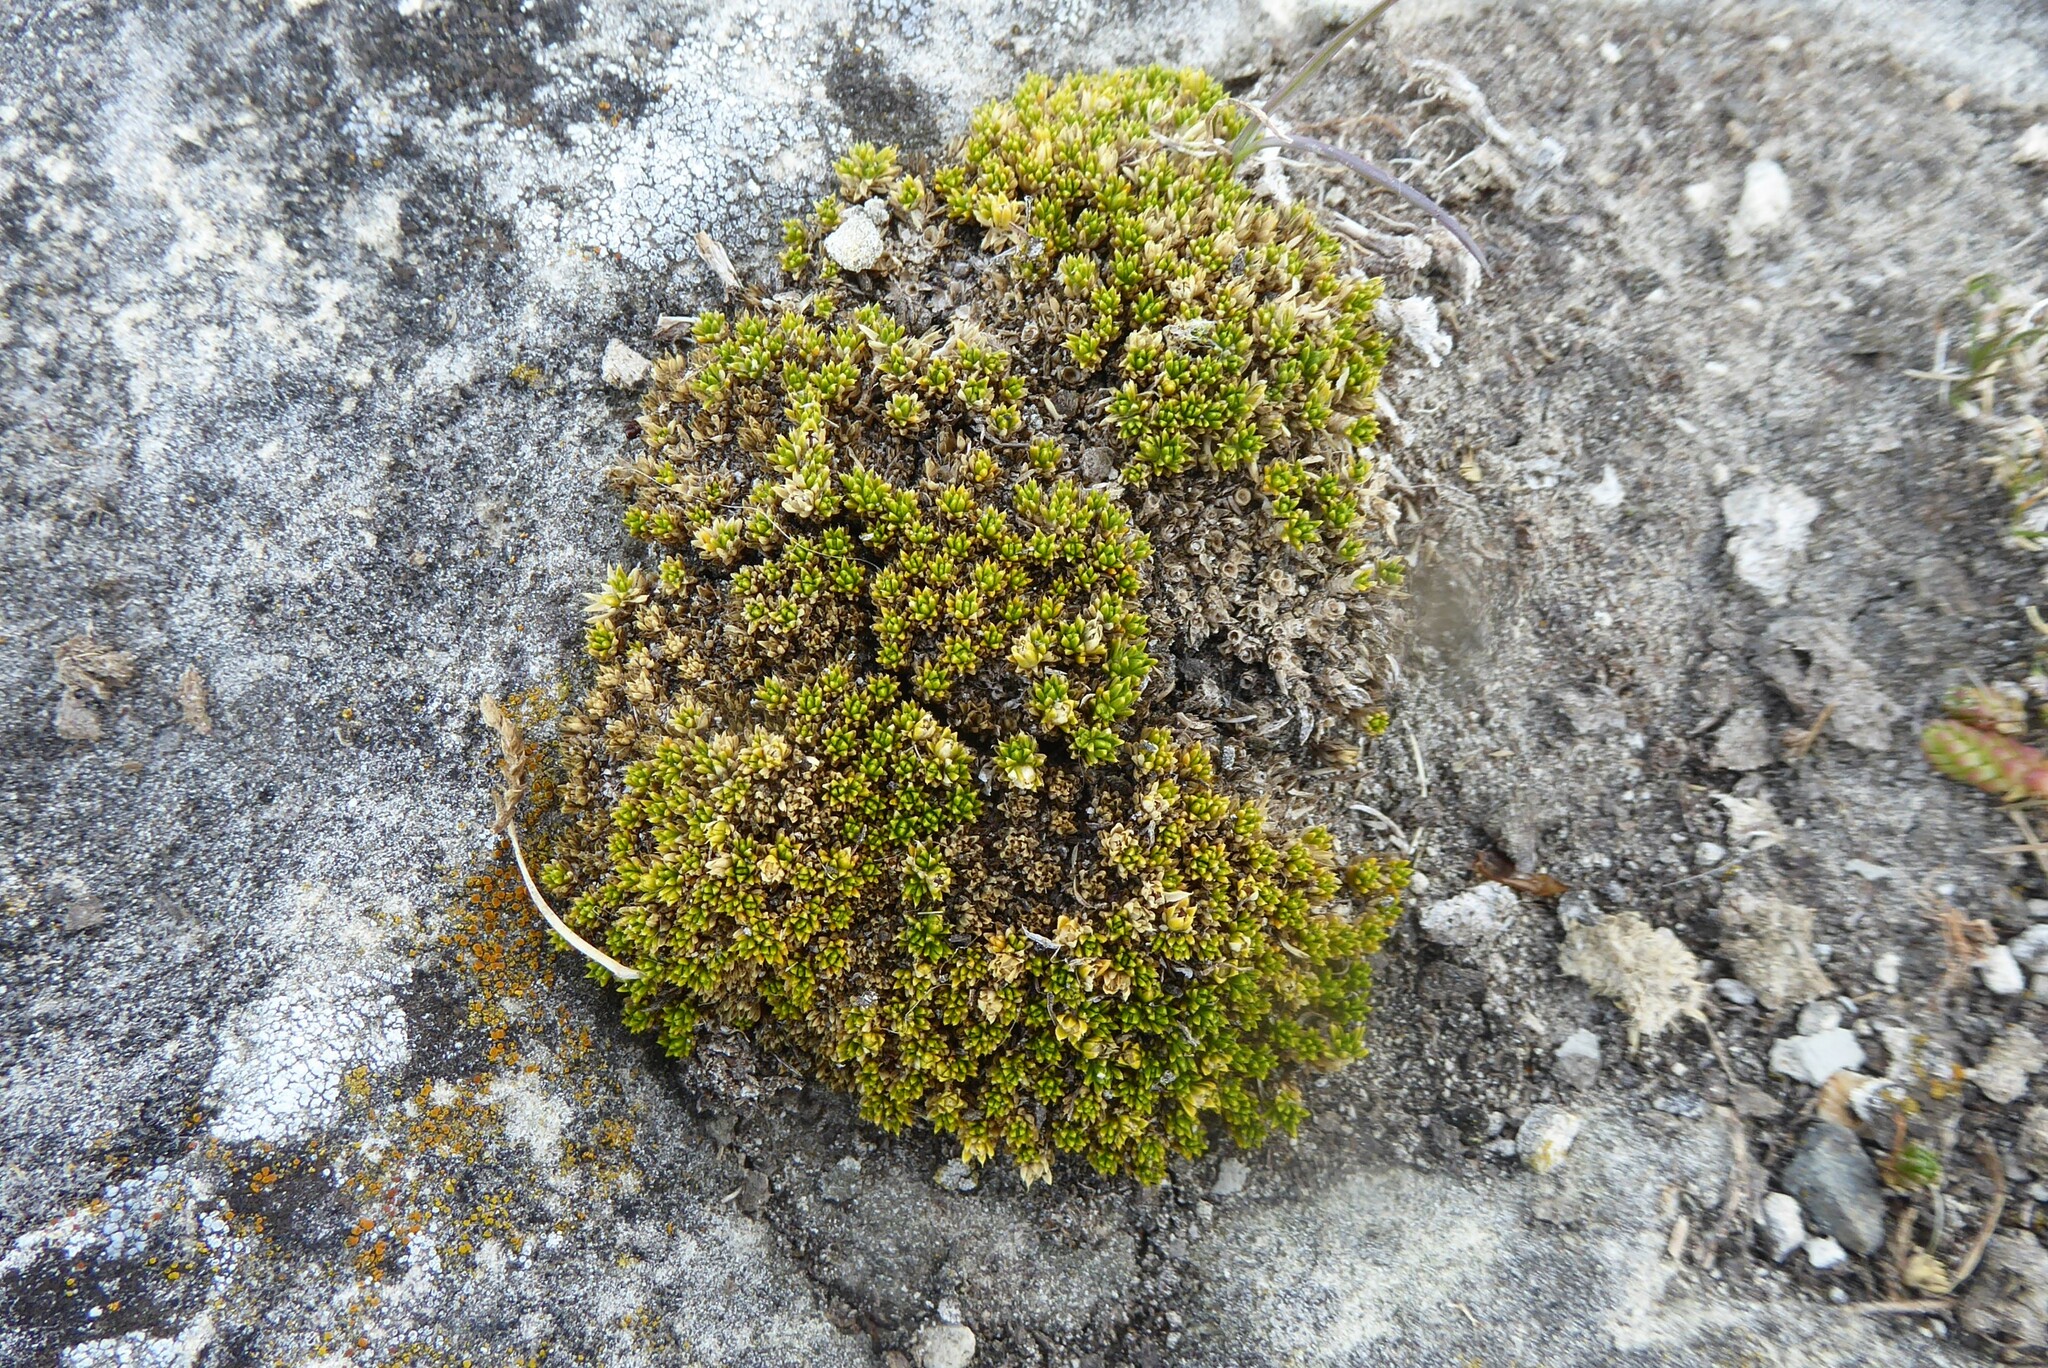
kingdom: Plantae
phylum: Tracheophyta
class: Magnoliopsida
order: Caryophyllales
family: Caryophyllaceae
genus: Colobanthus
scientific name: Colobanthus brevisepalus
